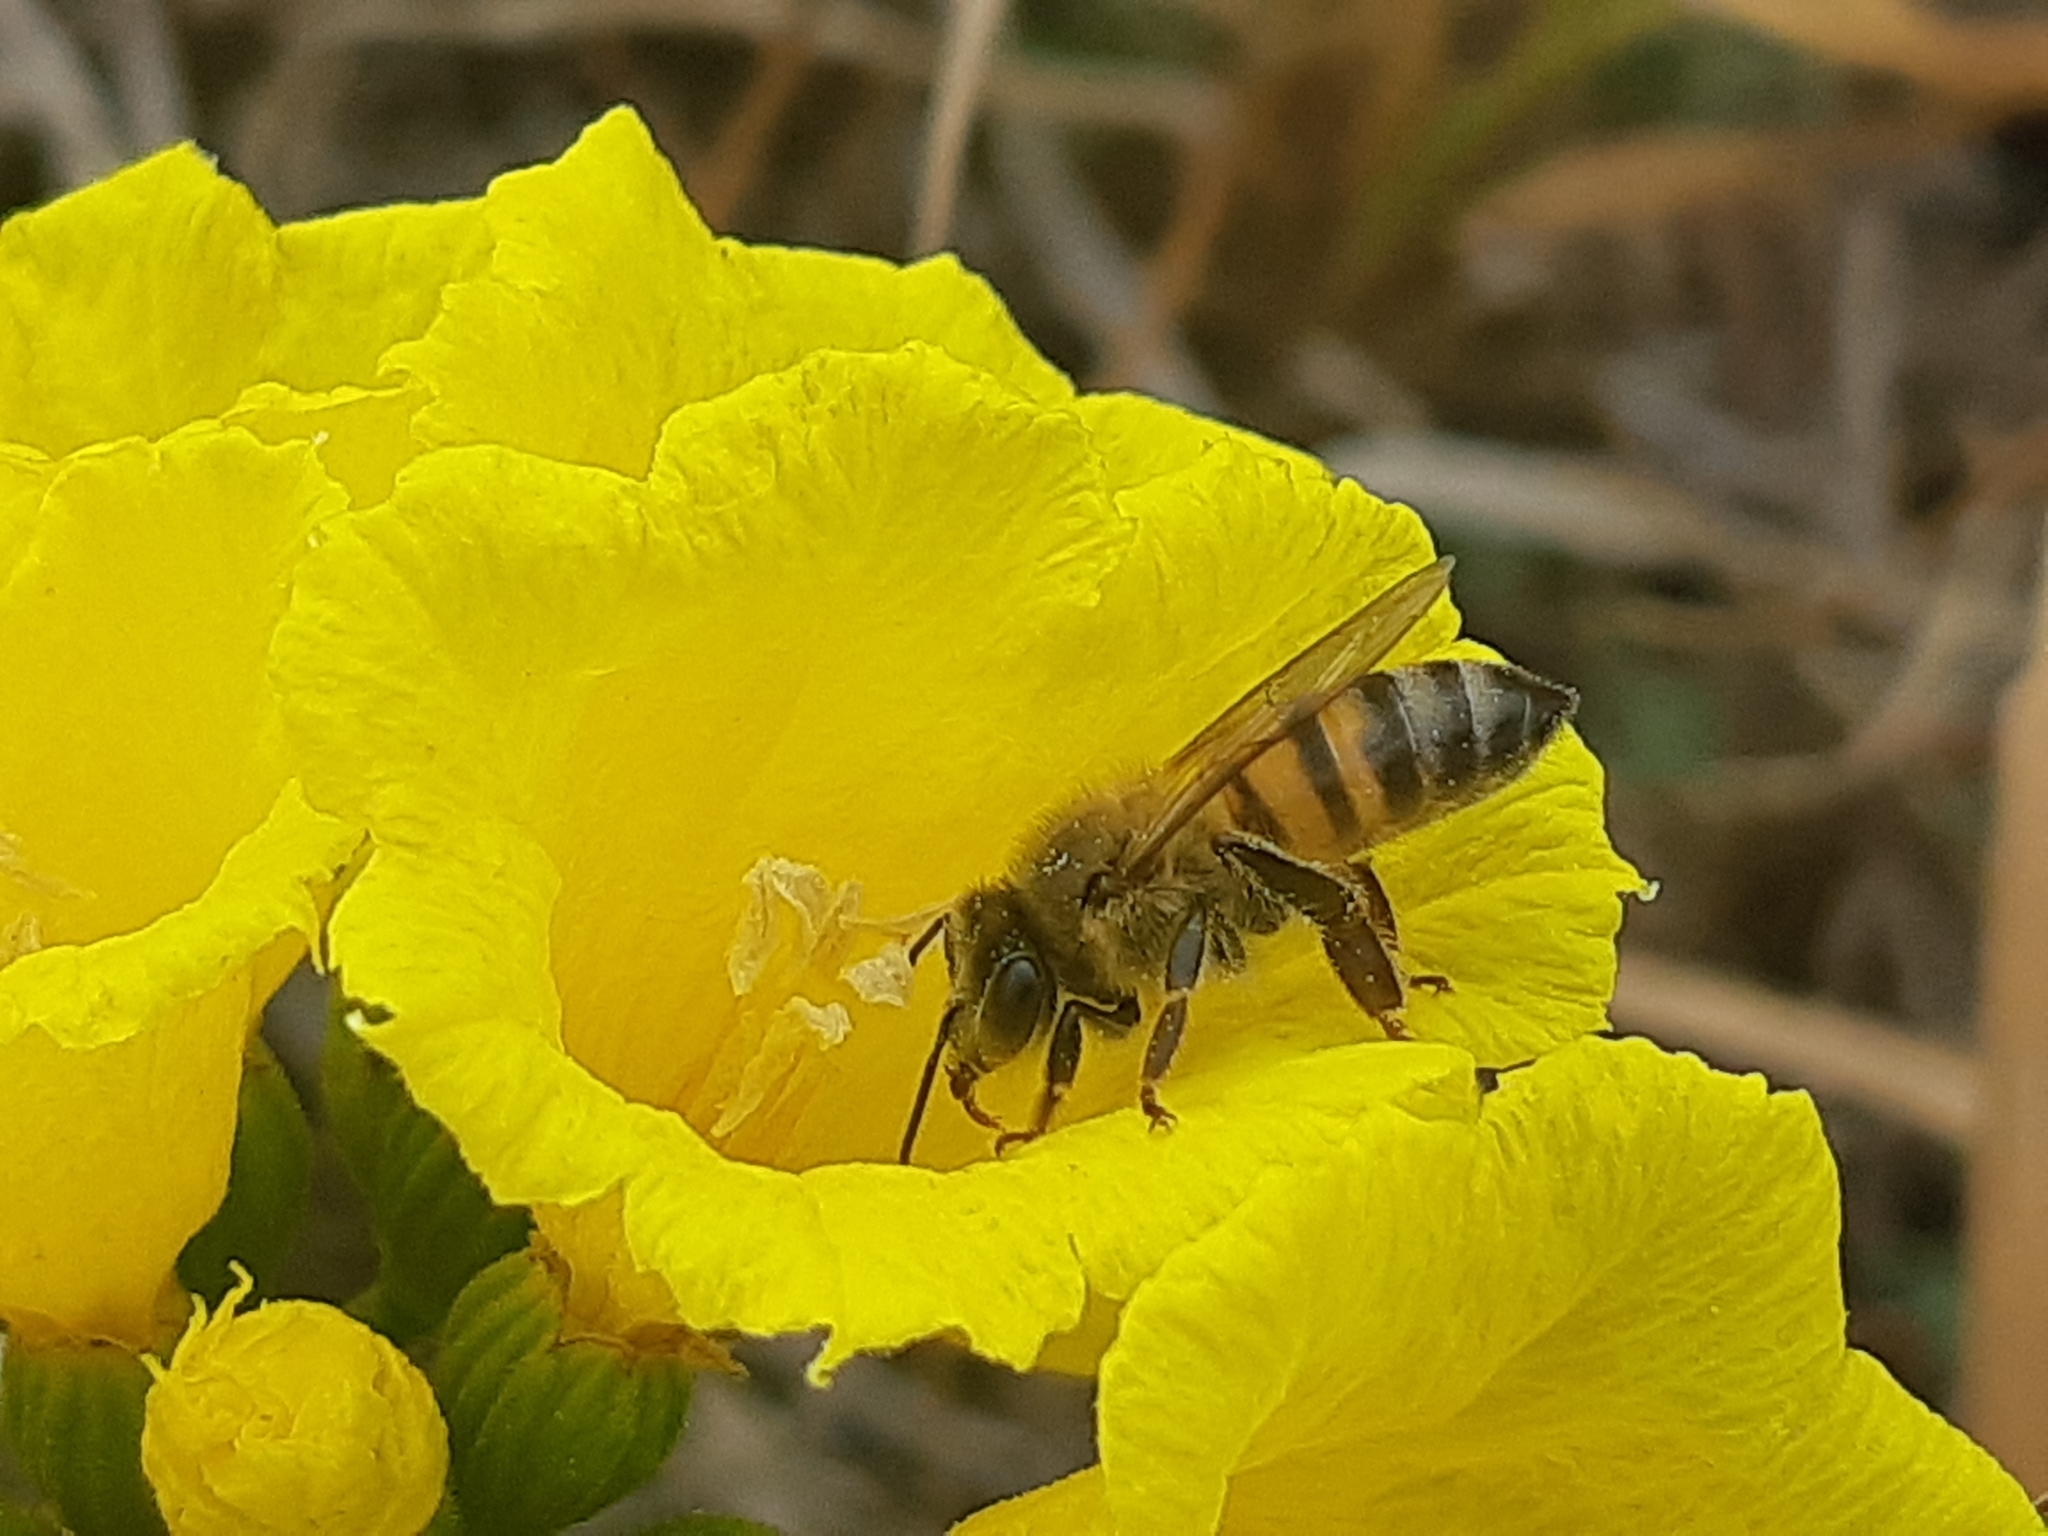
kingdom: Animalia
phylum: Arthropoda
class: Insecta
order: Hymenoptera
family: Apidae
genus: Apis
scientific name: Apis mellifera
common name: Honey bee
